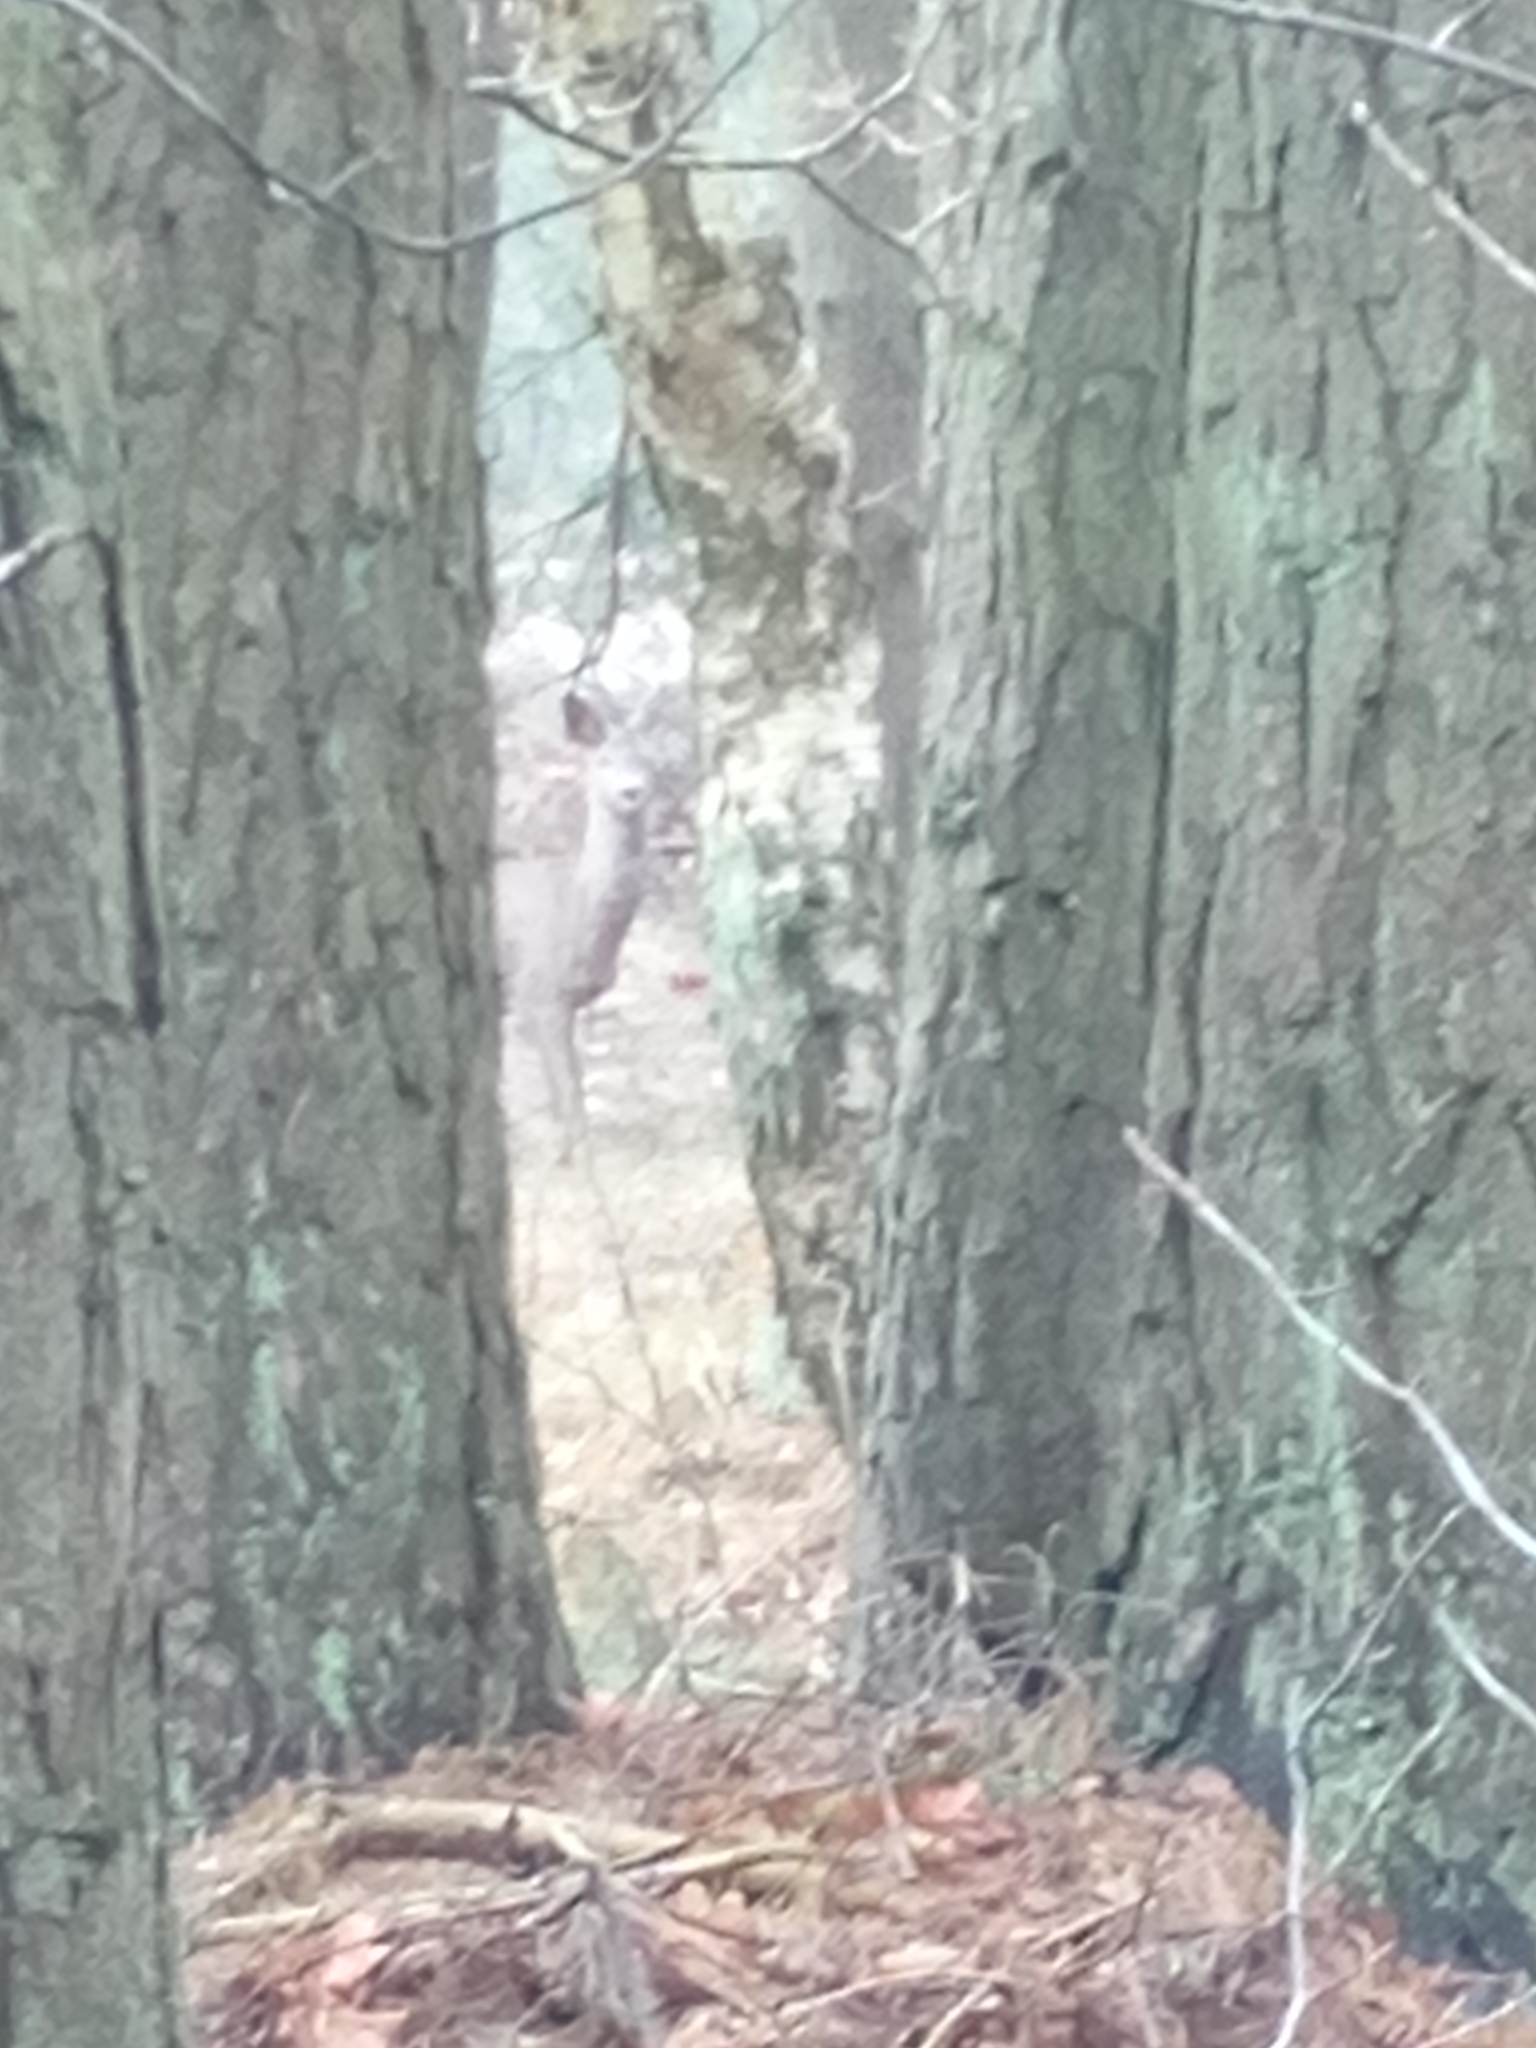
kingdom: Animalia
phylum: Chordata
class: Mammalia
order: Artiodactyla
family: Cervidae
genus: Capreolus
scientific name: Capreolus capreolus
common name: Western roe deer
